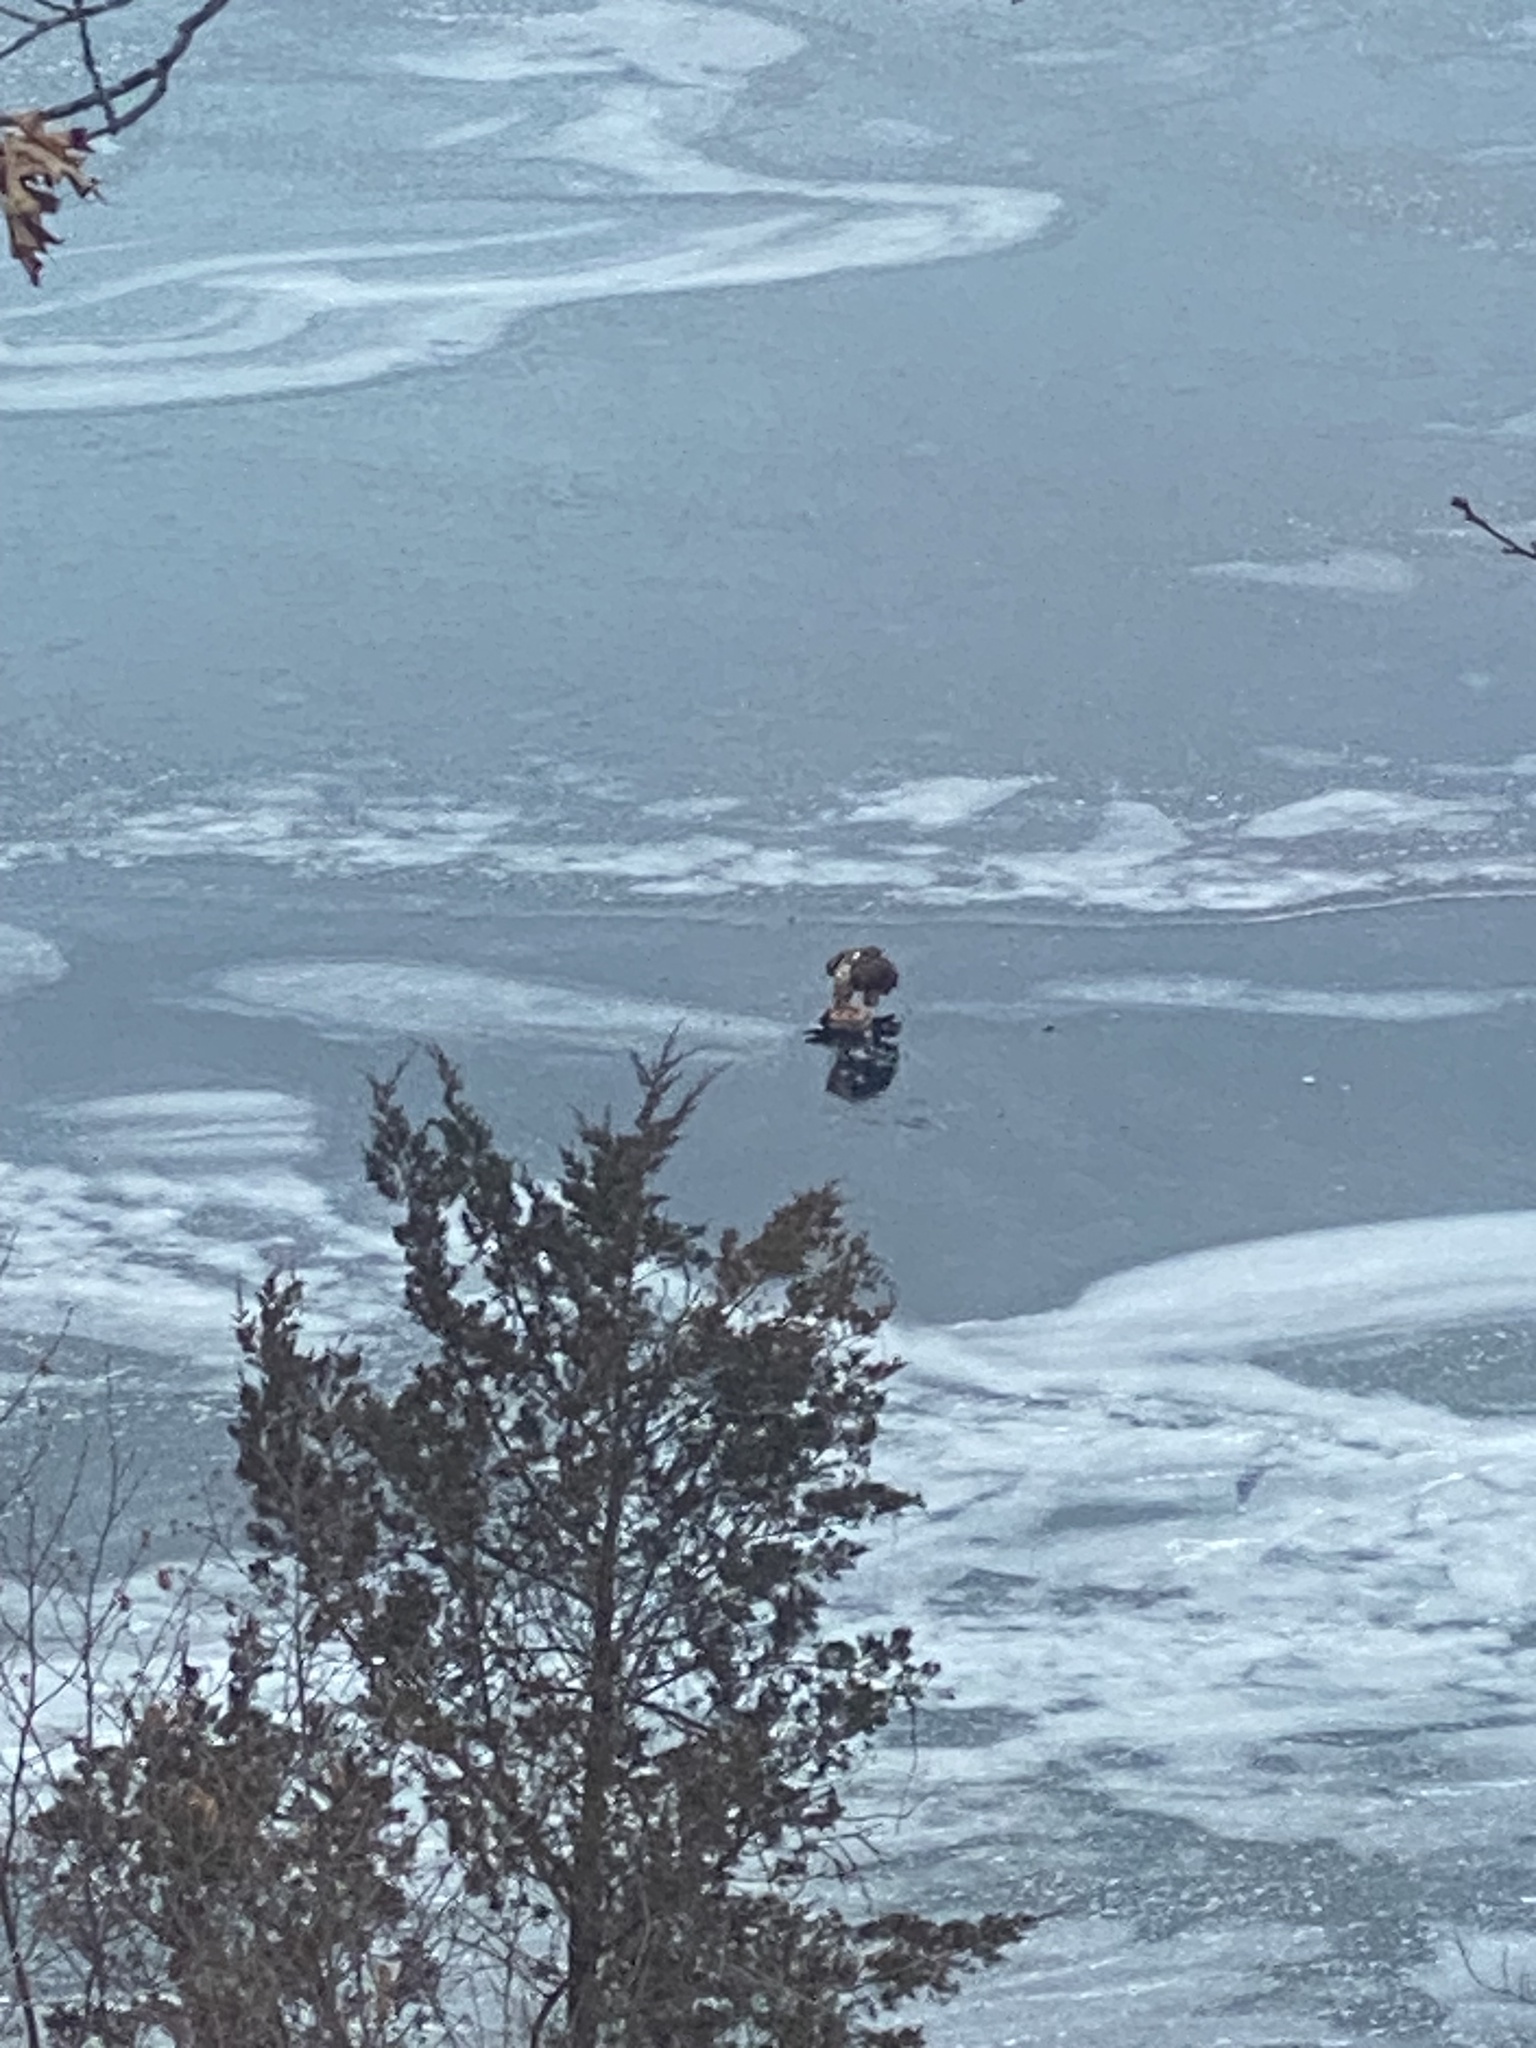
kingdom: Animalia
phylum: Chordata
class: Aves
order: Accipitriformes
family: Accipitridae
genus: Haliaeetus
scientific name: Haliaeetus leucocephalus
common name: Bald eagle
